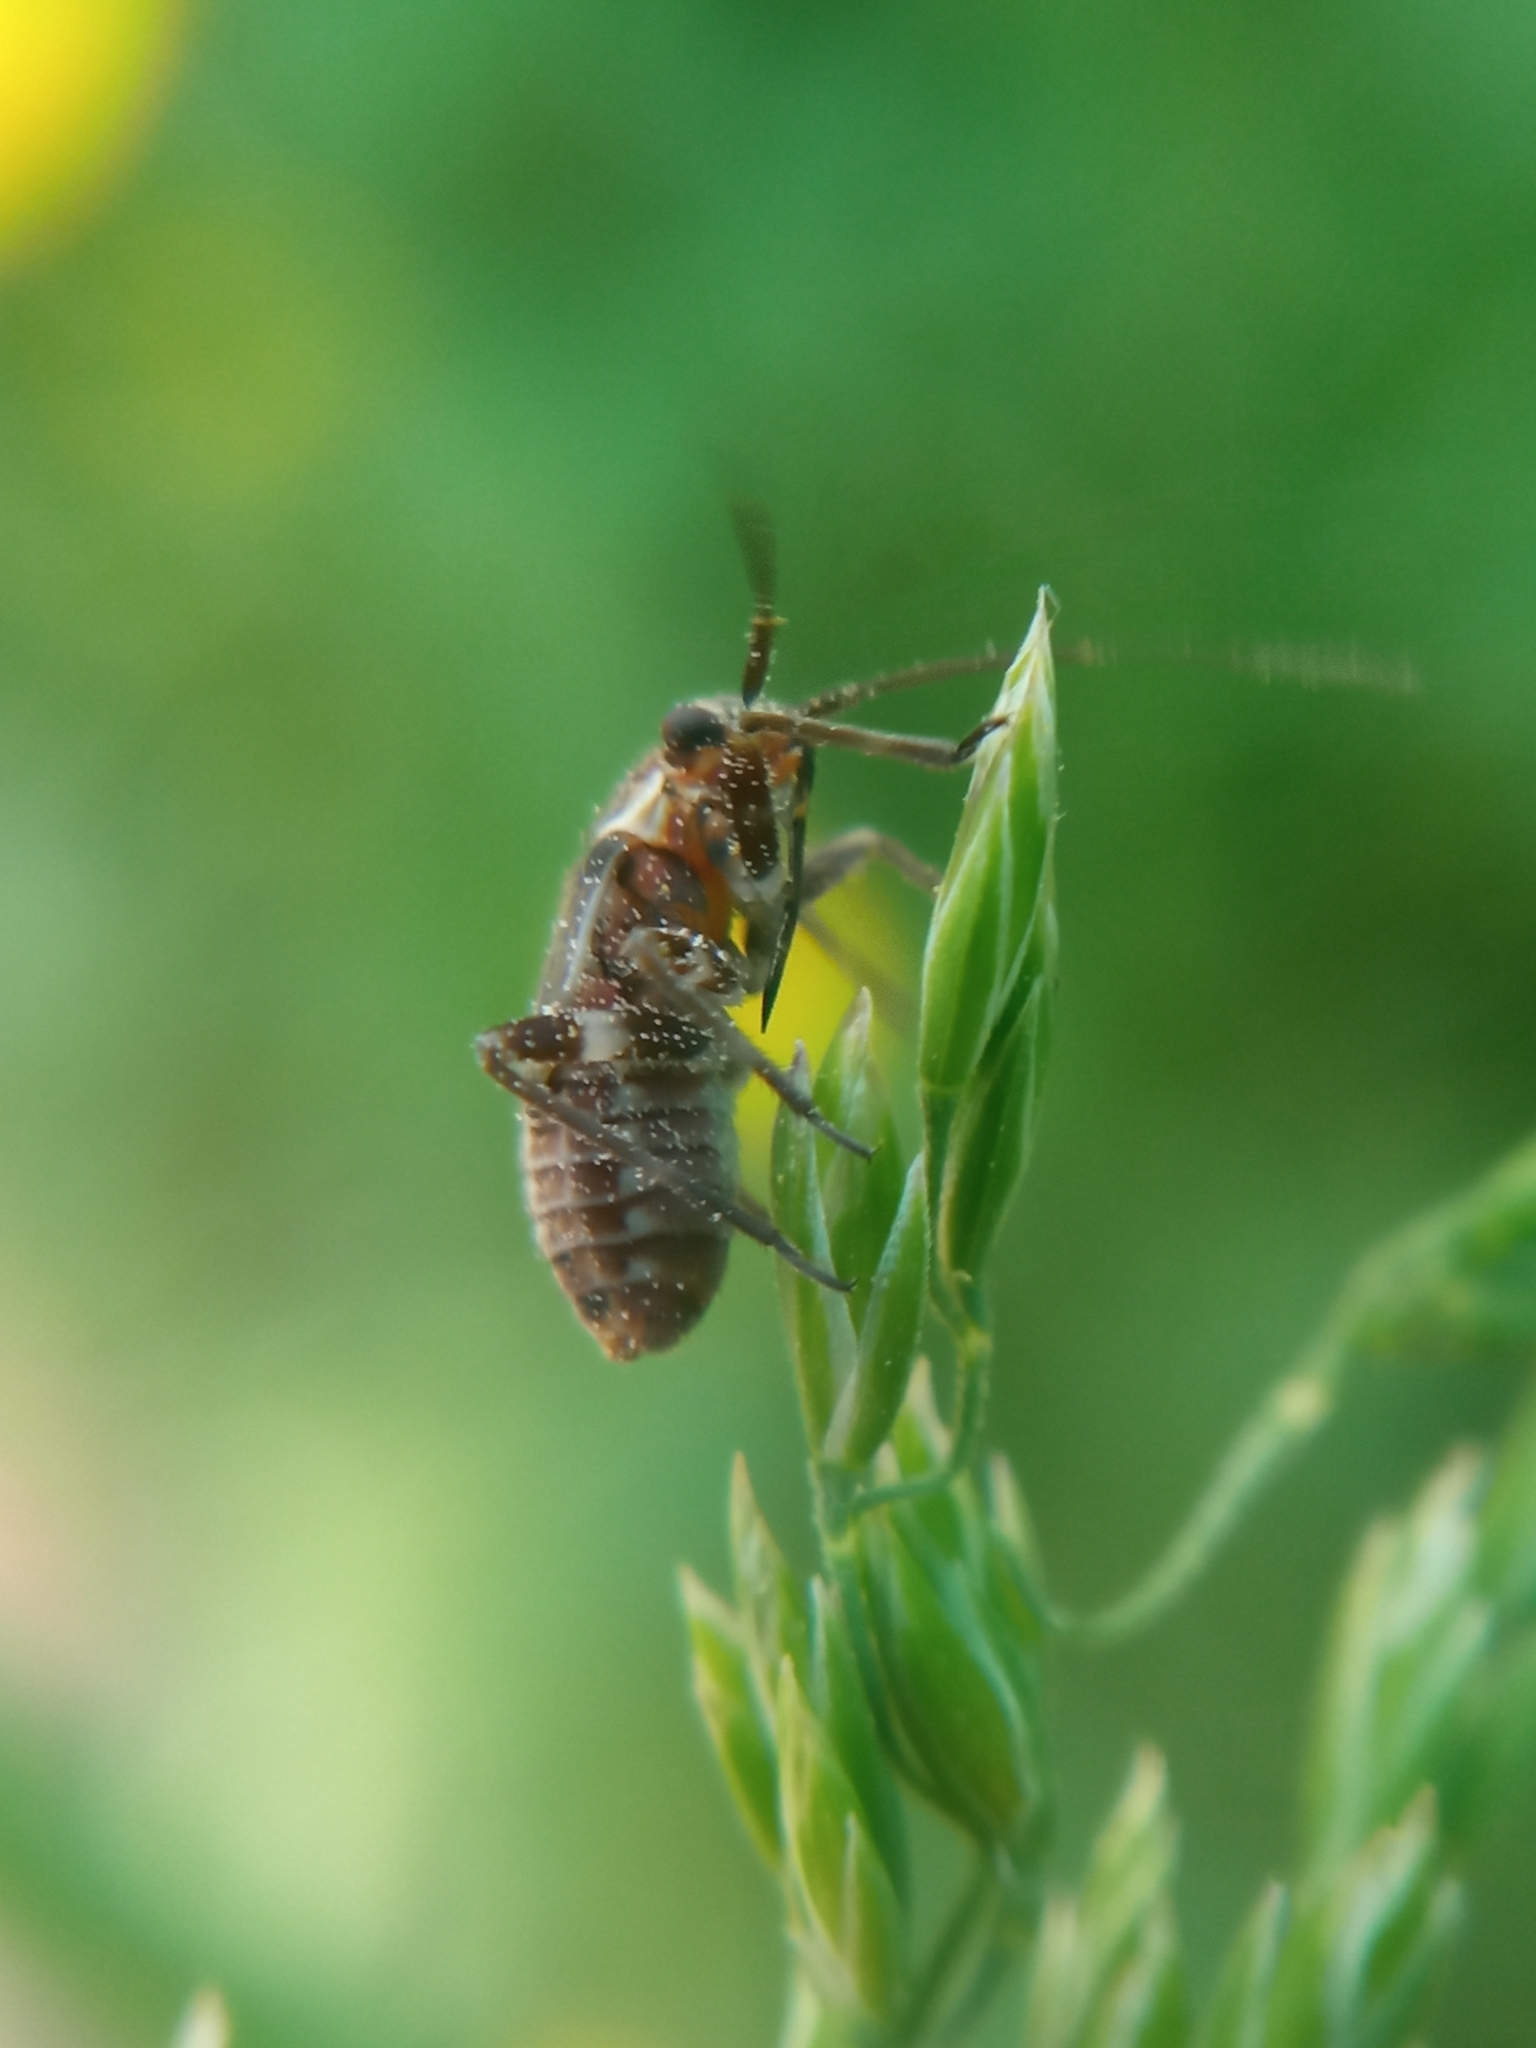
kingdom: Animalia
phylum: Arthropoda
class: Insecta
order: Hemiptera
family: Miridae
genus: Capsodes
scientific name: Capsodes flavomarginatus
